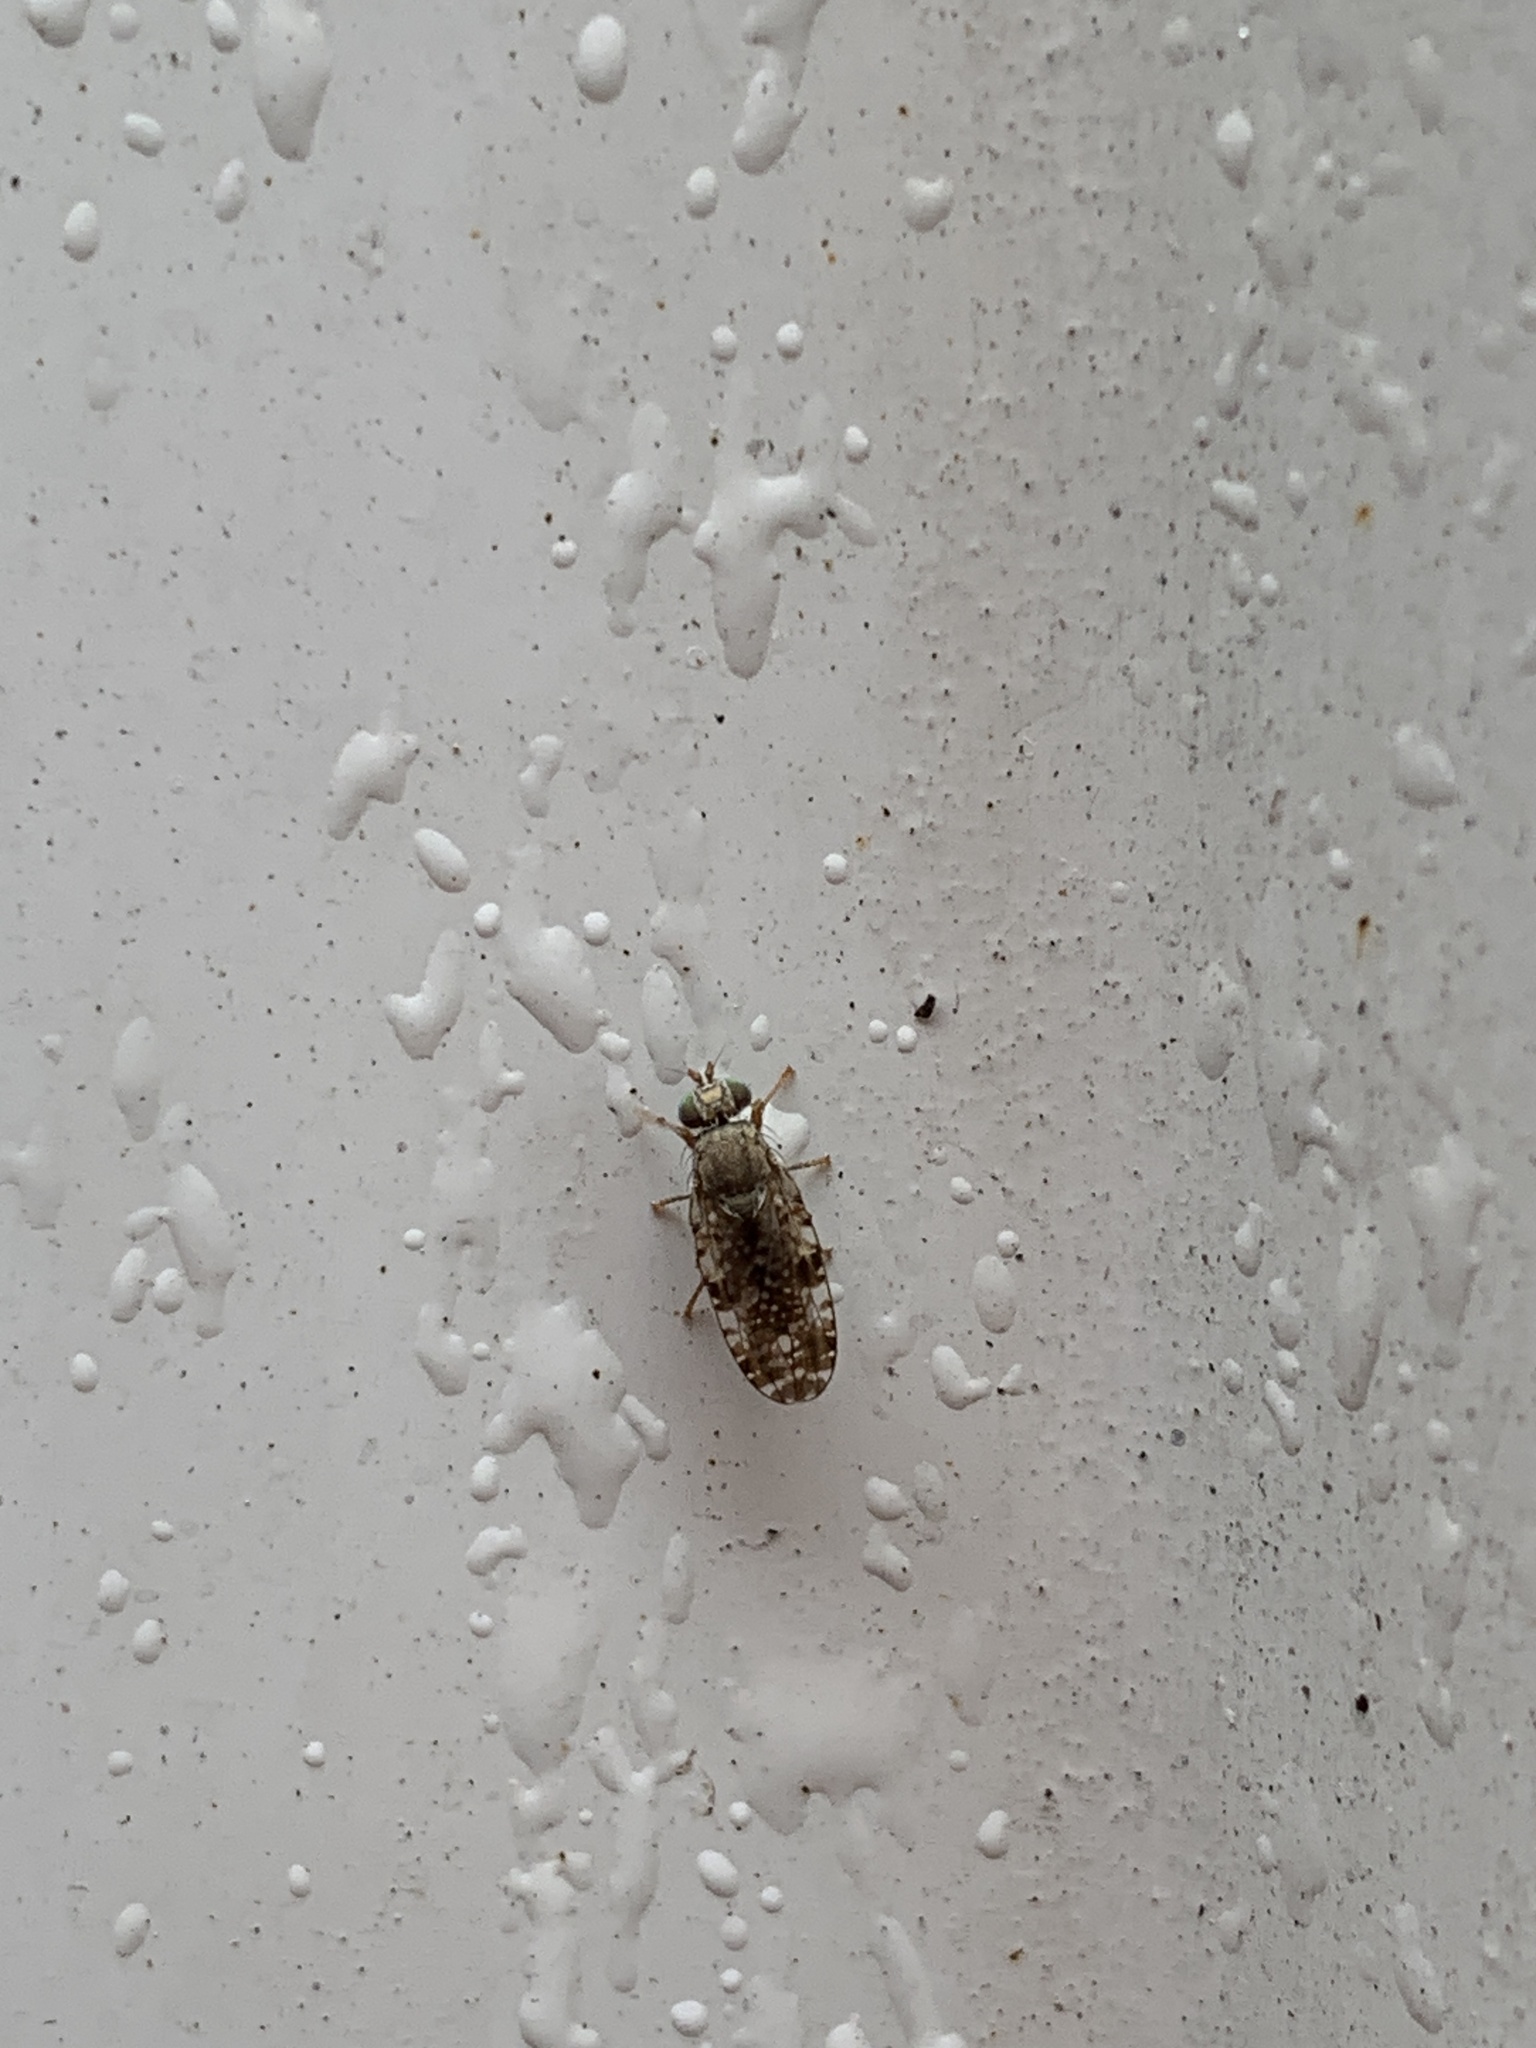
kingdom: Animalia
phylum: Arthropoda
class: Insecta
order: Diptera
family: Tephritidae
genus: Dioxyna
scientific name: Dioxyna bidentis
